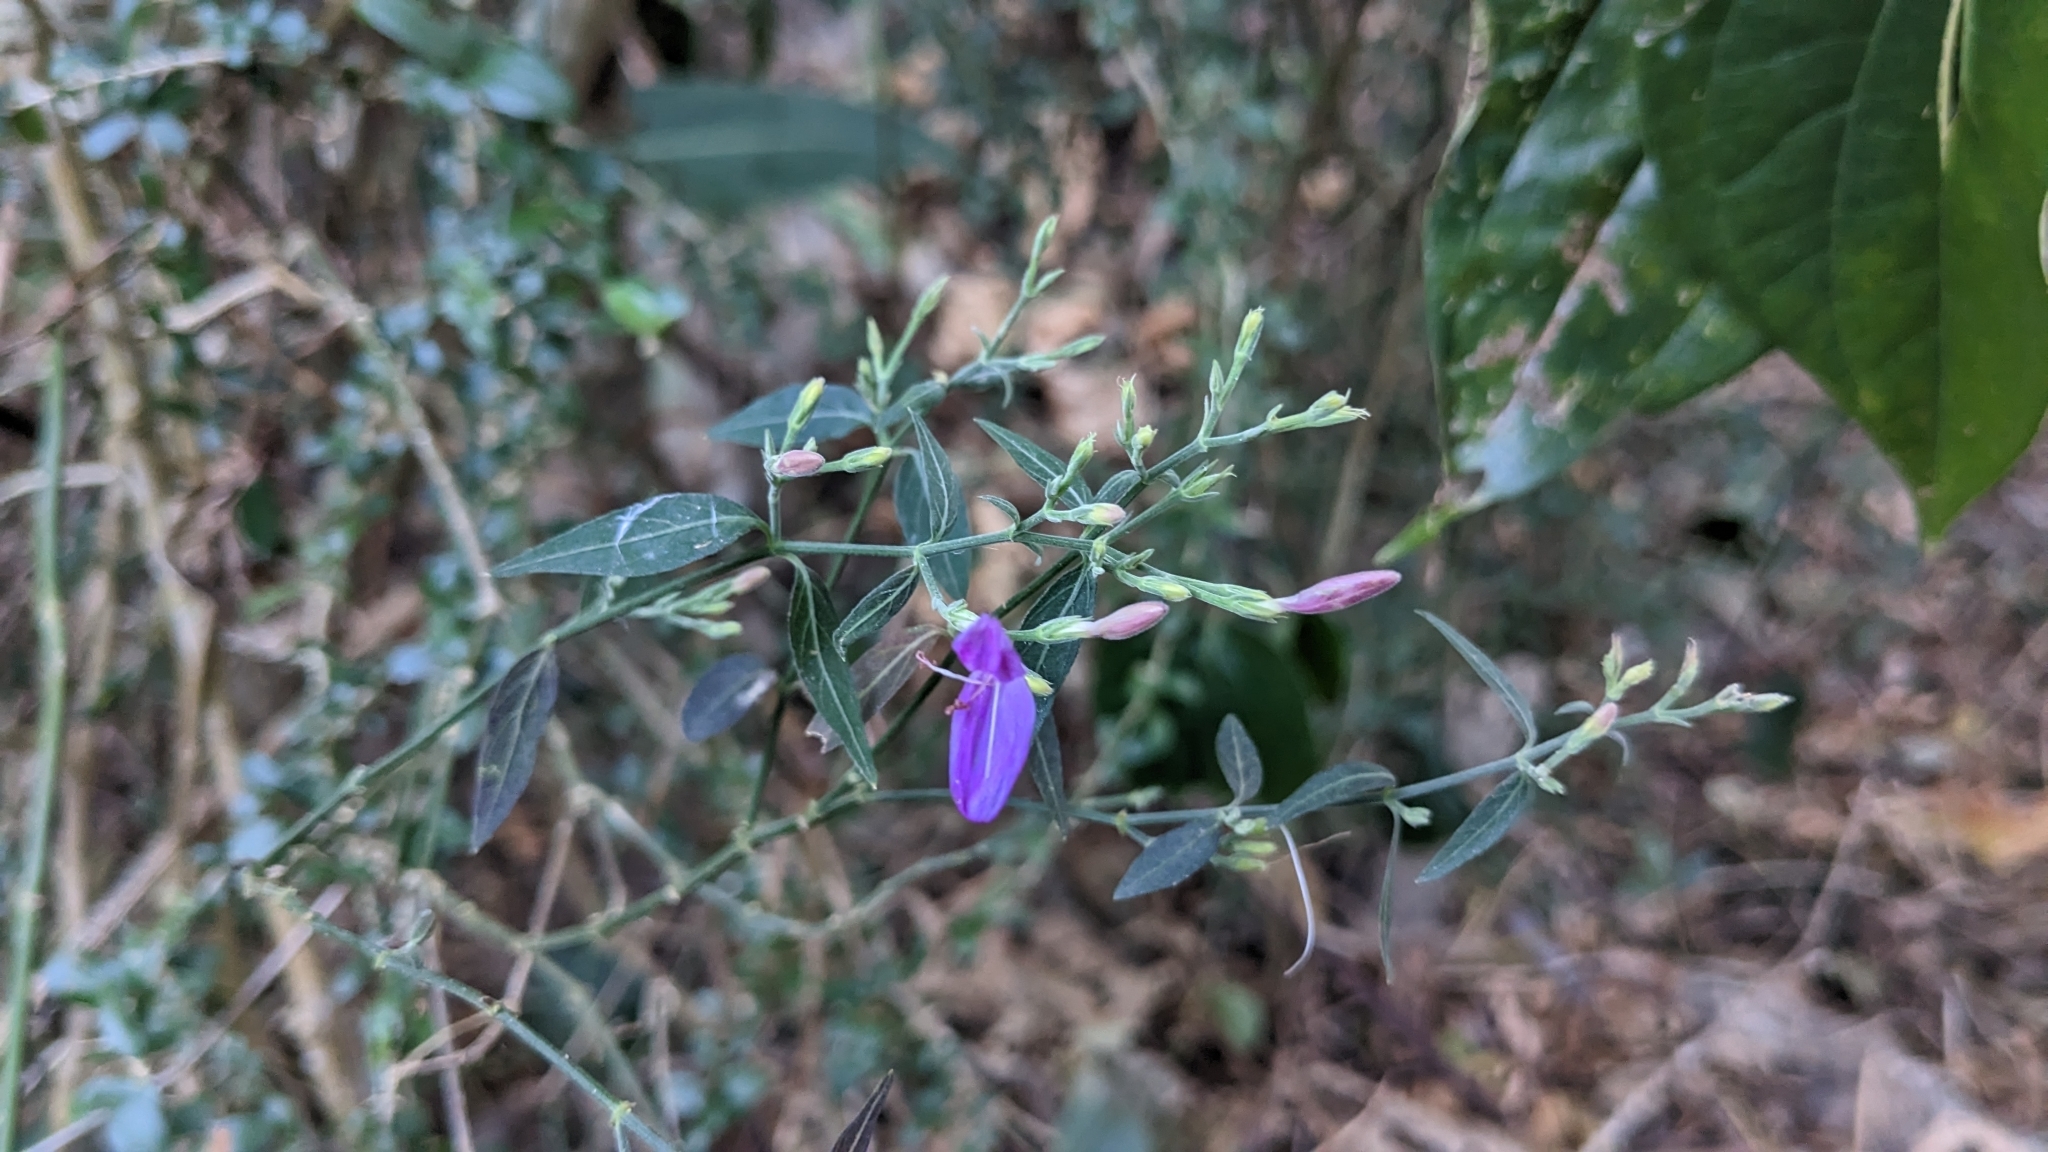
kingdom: Plantae
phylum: Tracheophyta
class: Magnoliopsida
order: Lamiales
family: Acanthaceae
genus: Hypoestes
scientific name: Hypoestes cumingiana
